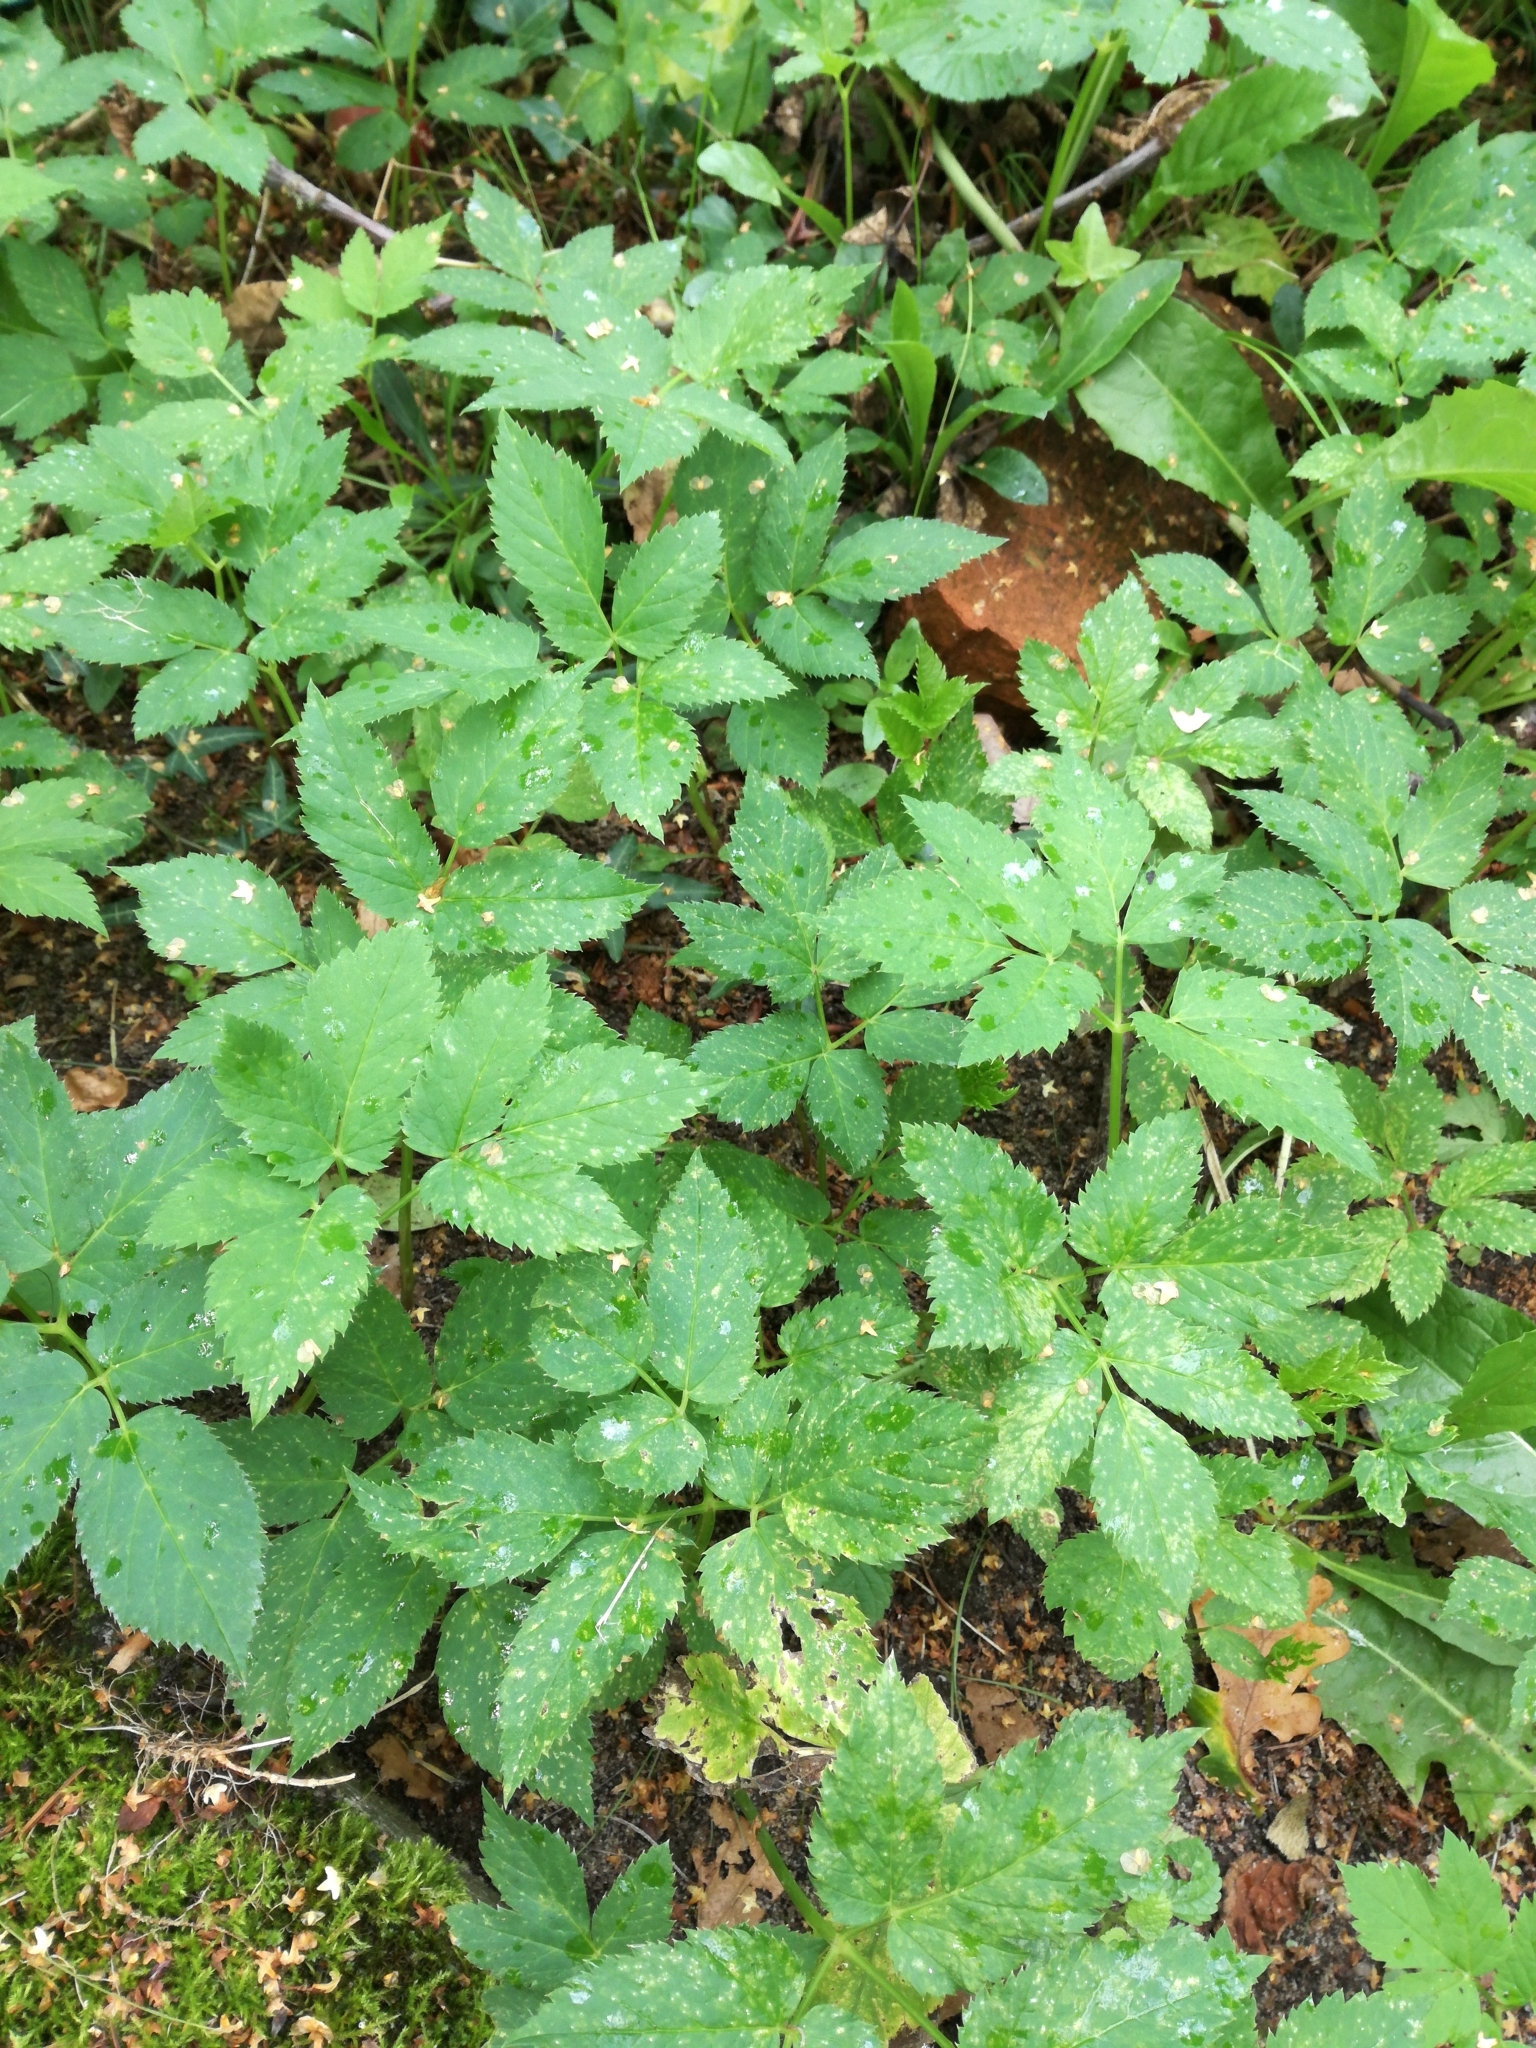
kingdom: Plantae
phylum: Tracheophyta
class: Magnoliopsida
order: Apiales
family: Apiaceae
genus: Aegopodium
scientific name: Aegopodium podagraria
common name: Ground-elder
